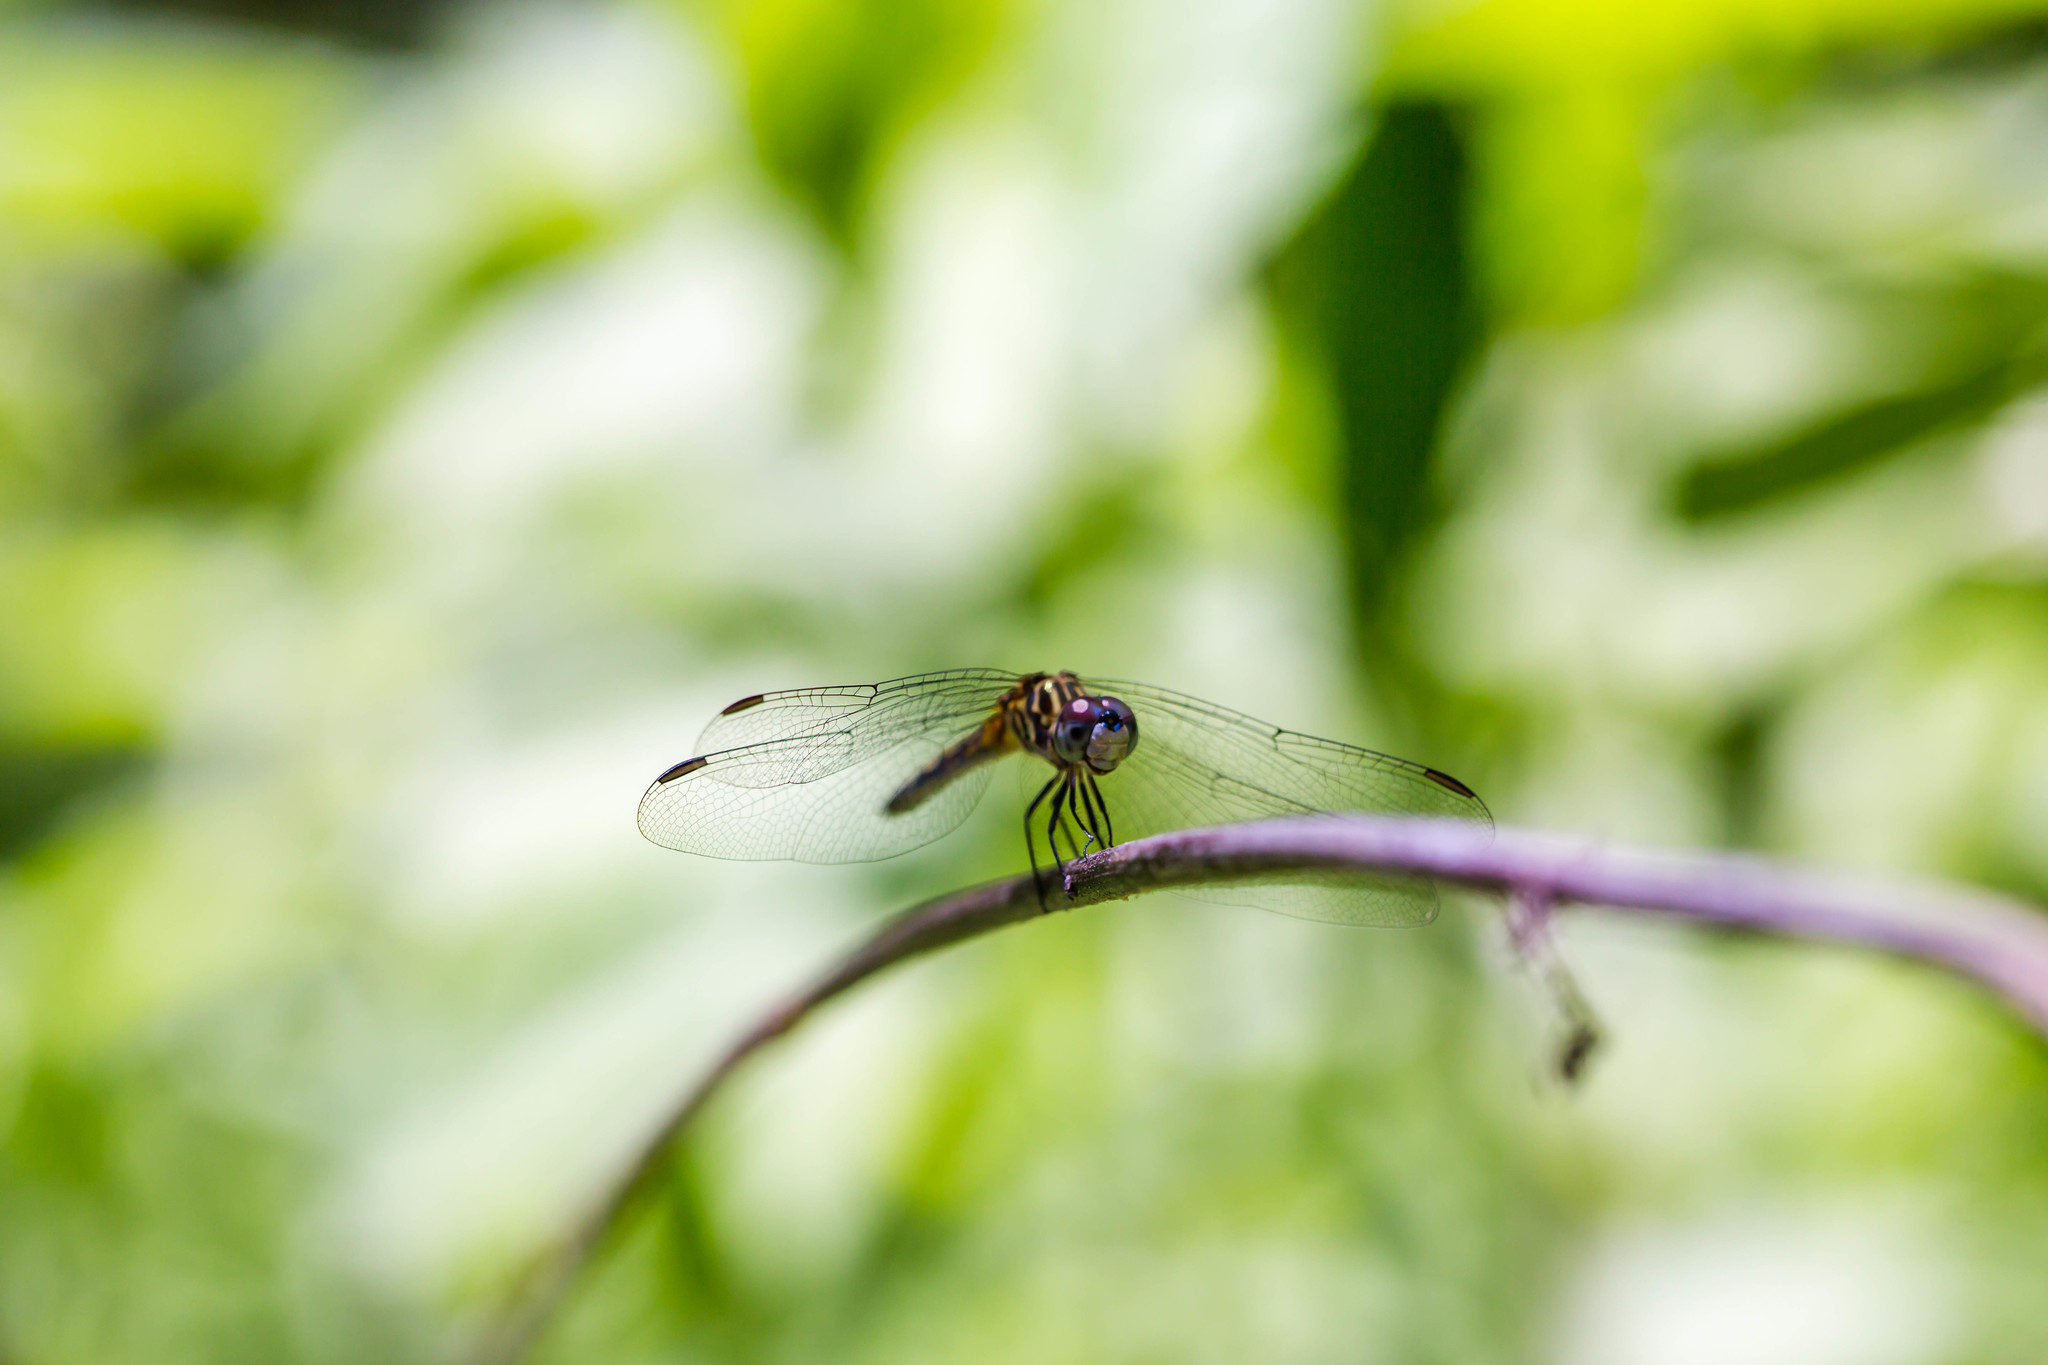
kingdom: Animalia
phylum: Arthropoda
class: Insecta
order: Odonata
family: Libellulidae
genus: Pachydiplax
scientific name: Pachydiplax longipennis
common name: Blue dasher
